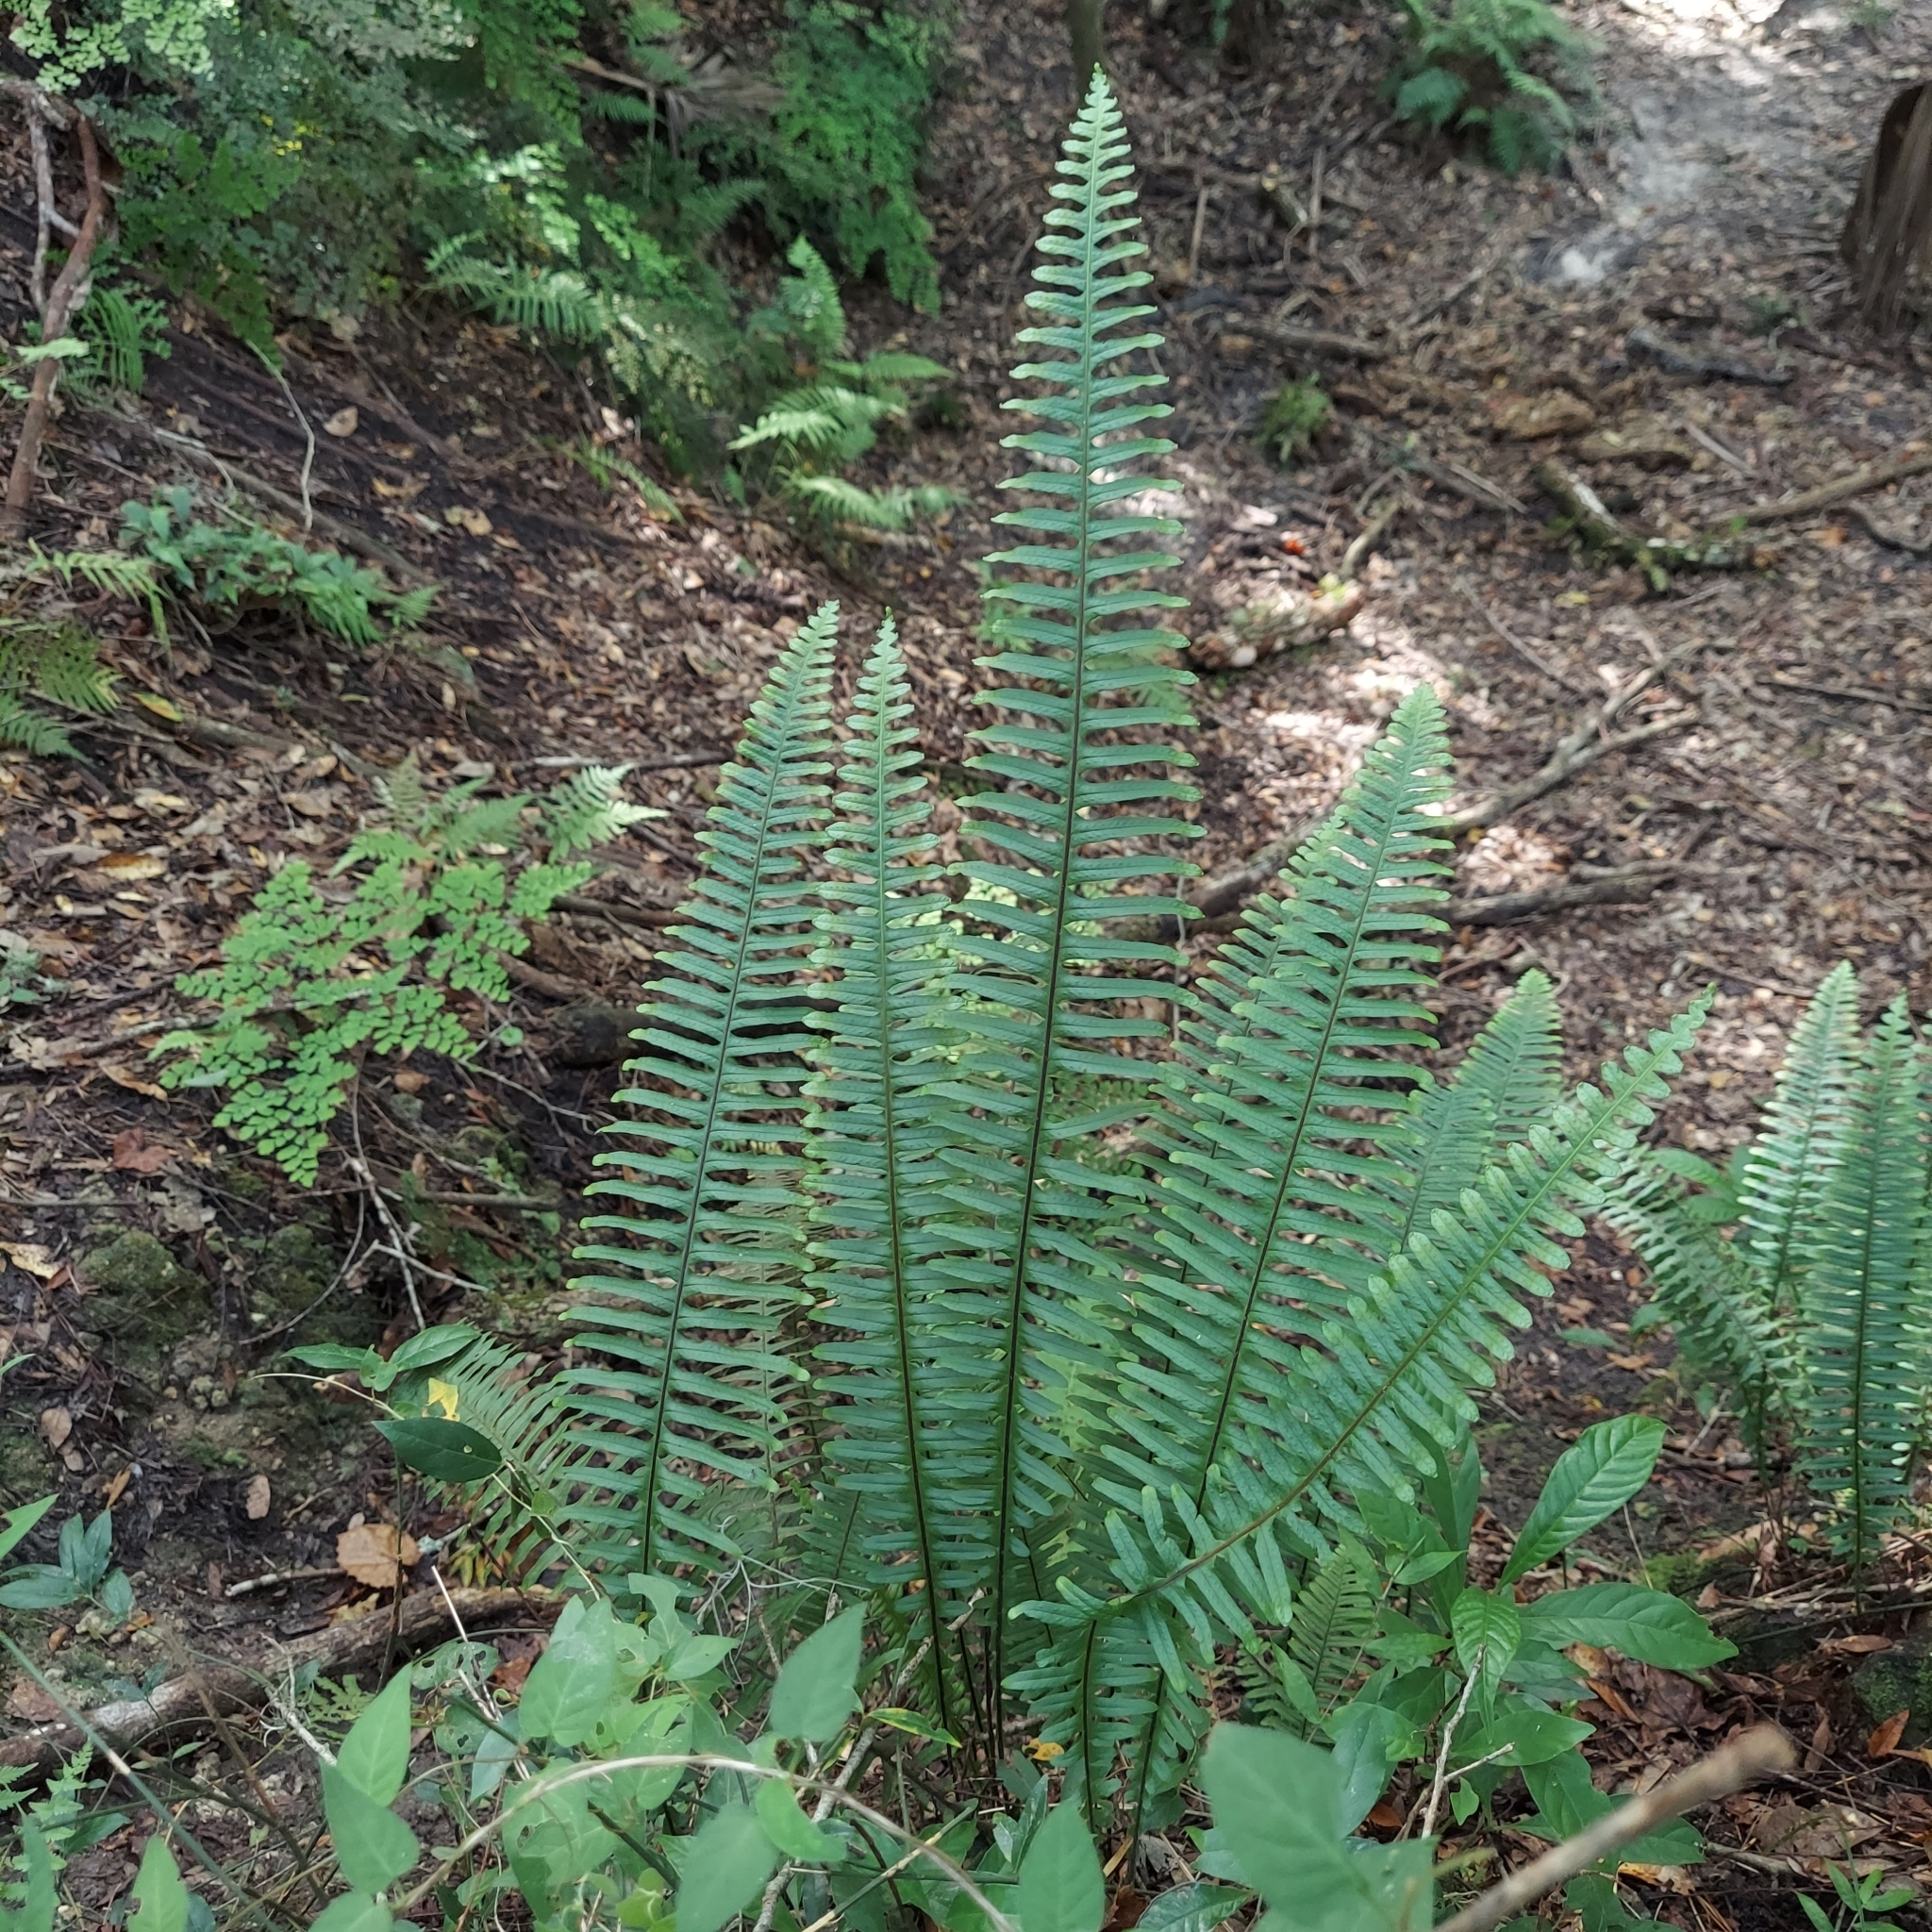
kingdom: Plantae
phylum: Tracheophyta
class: Polypodiopsida
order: Polypodiales
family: Polypodiaceae
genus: Pecluma
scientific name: Pecluma bourgeauana
